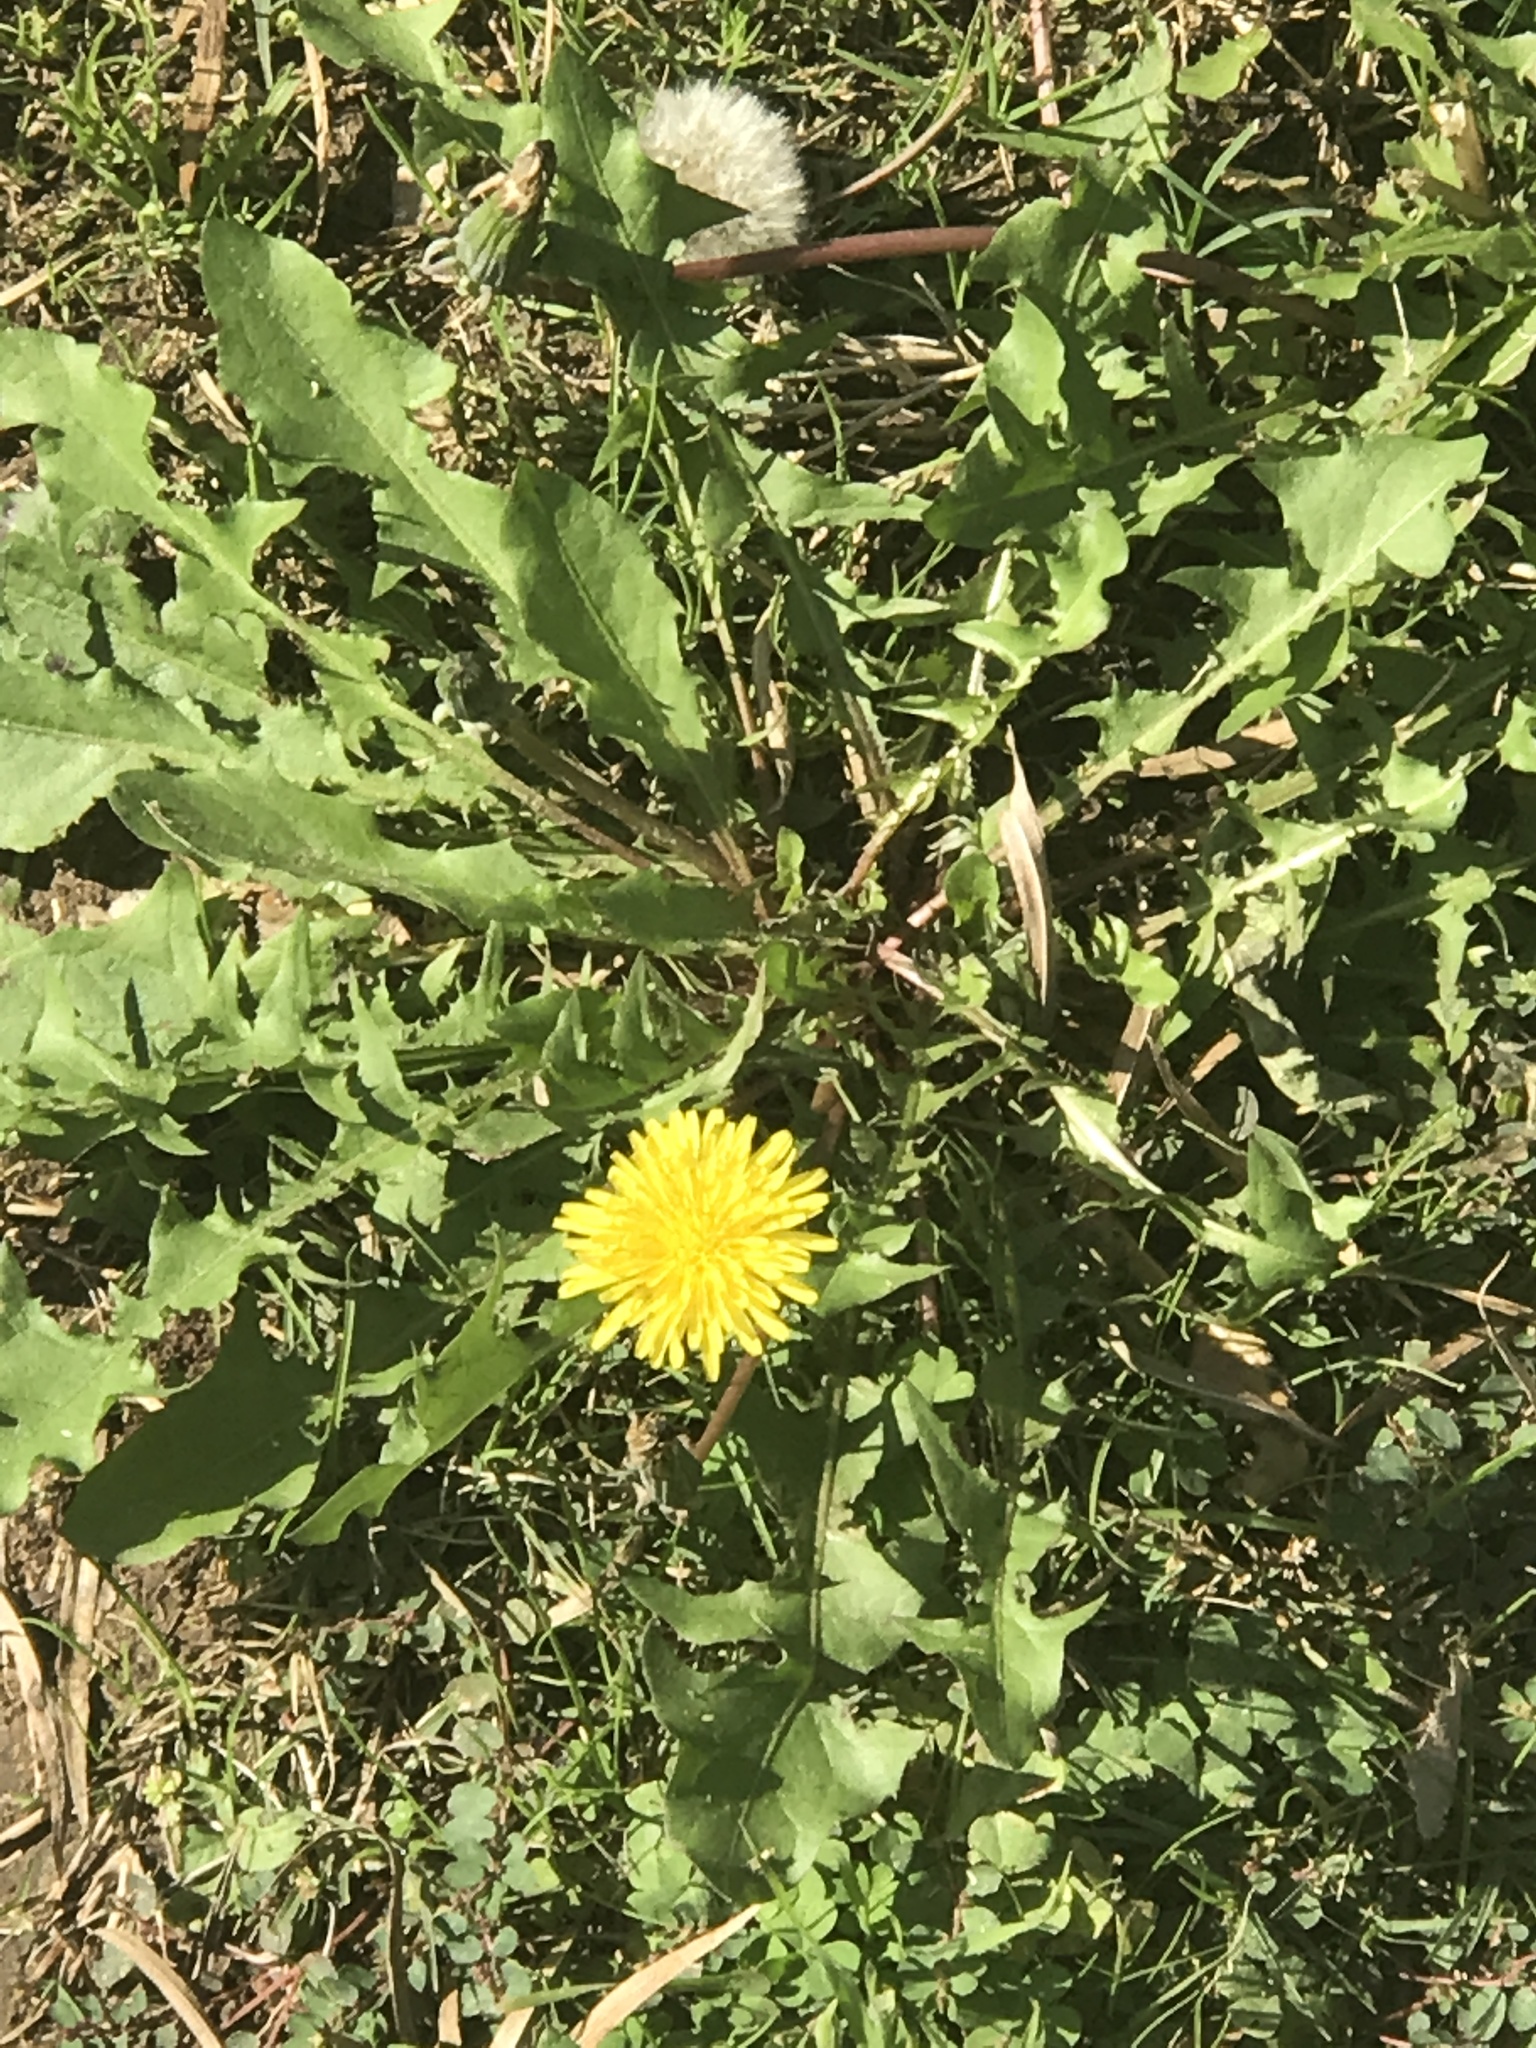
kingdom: Plantae
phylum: Tracheophyta
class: Magnoliopsida
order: Asterales
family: Asteraceae
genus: Taraxacum
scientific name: Taraxacum officinale
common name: Common dandelion
